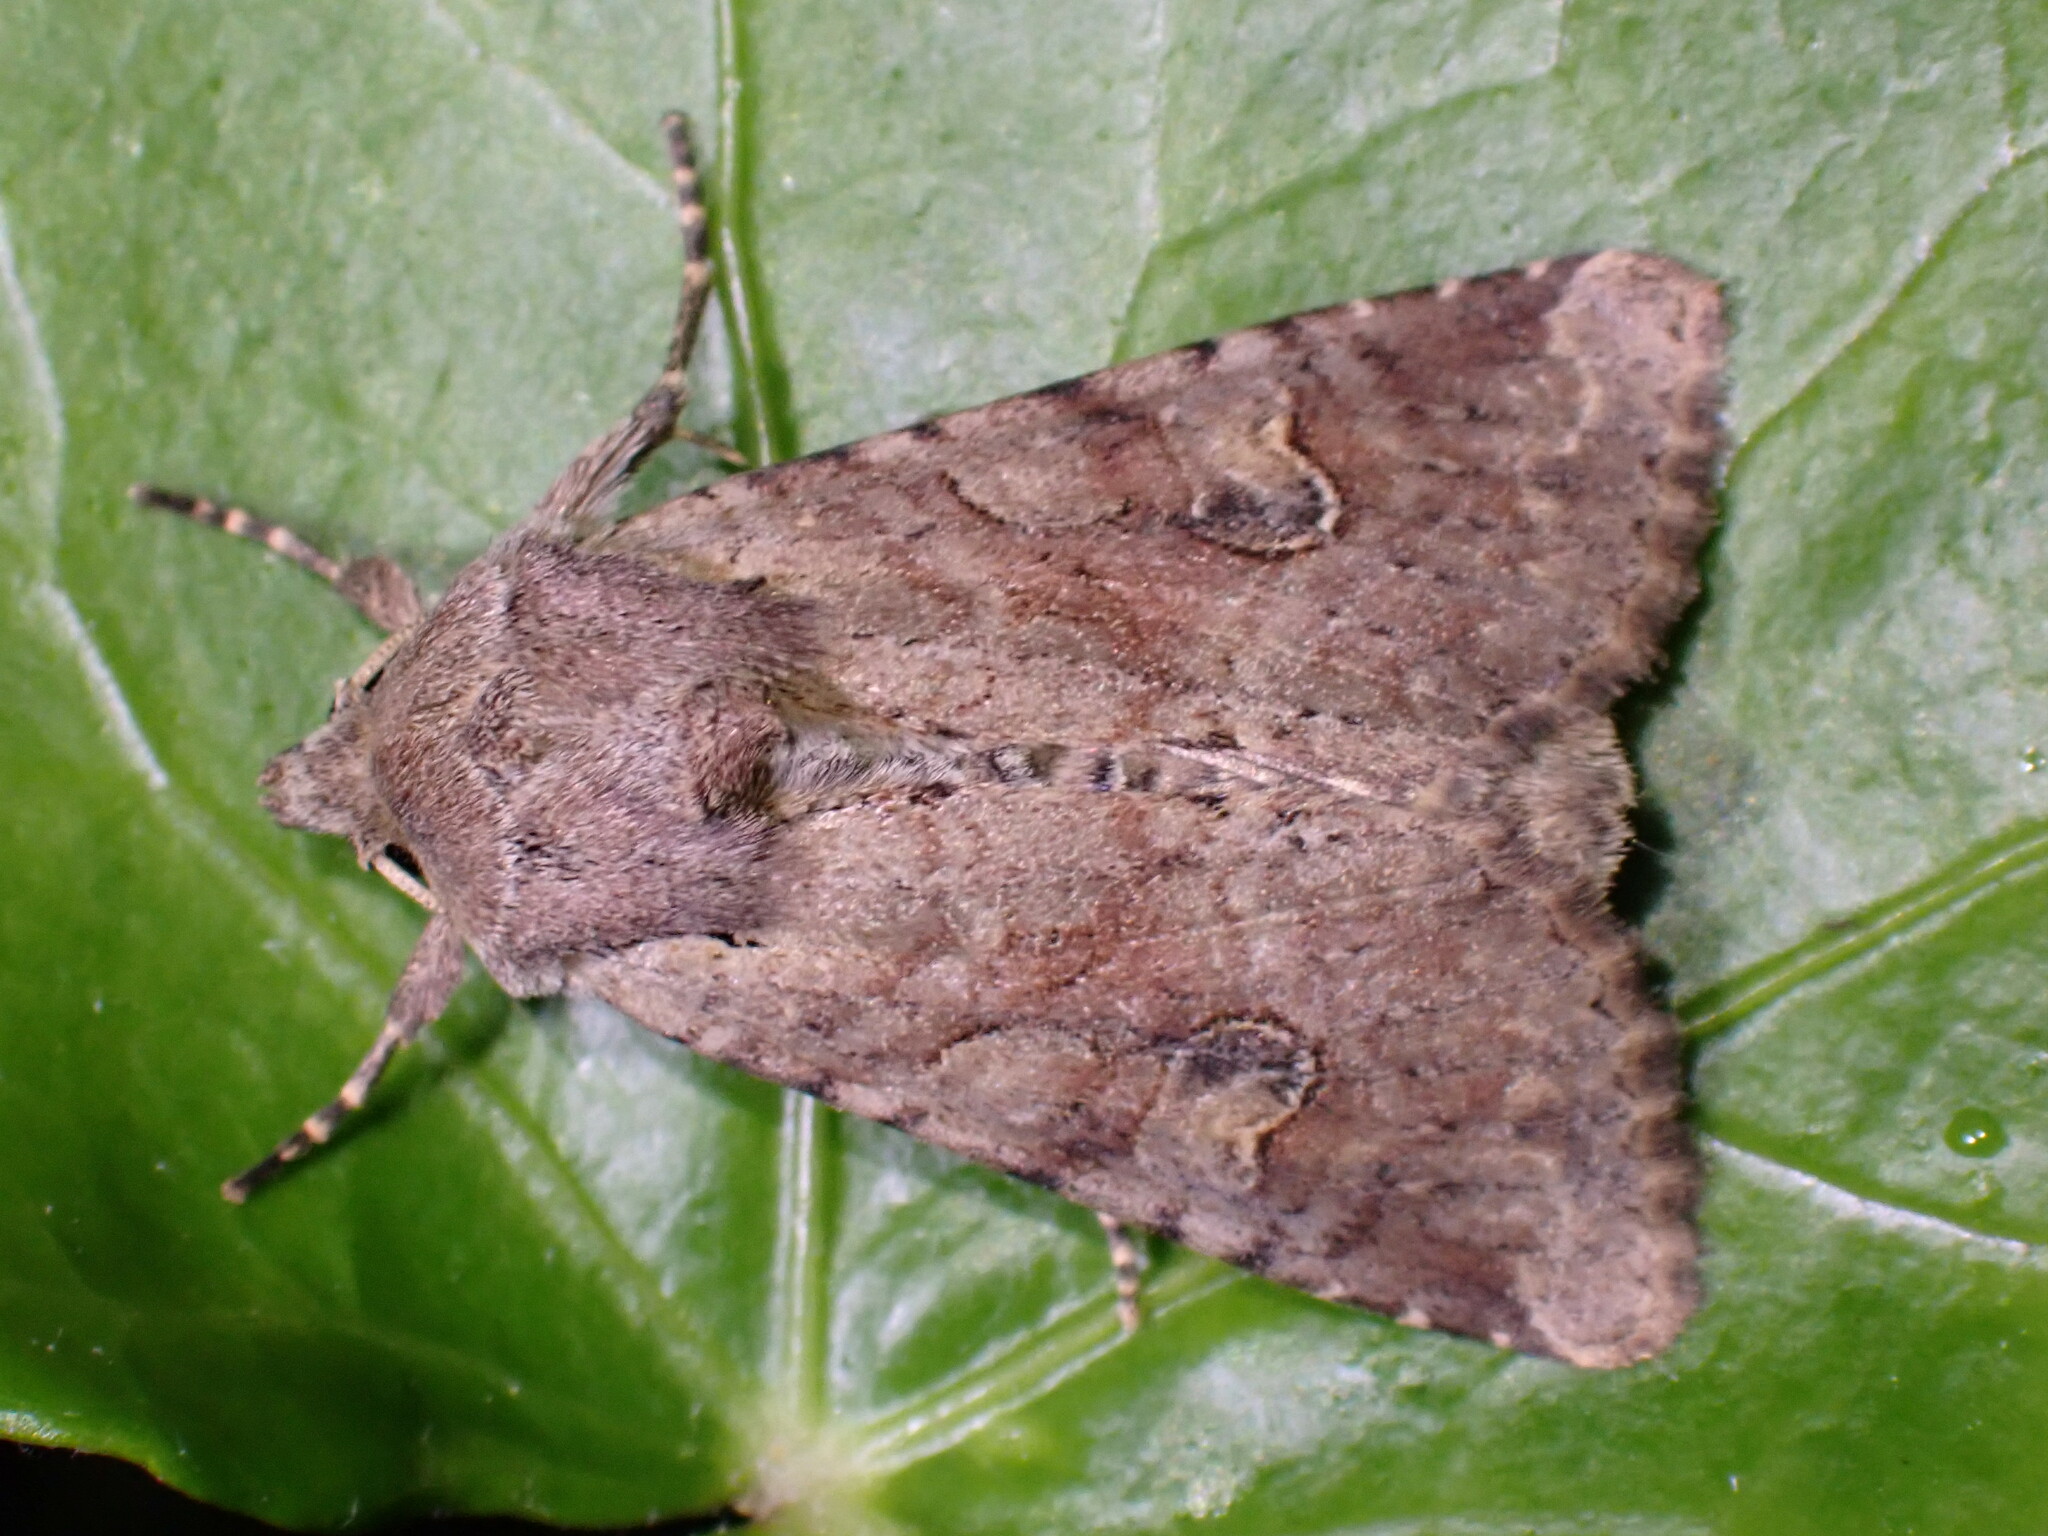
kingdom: Animalia
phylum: Arthropoda
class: Insecta
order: Lepidoptera
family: Noctuidae
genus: Apamea
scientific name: Apamea sordens
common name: Rustic shoulder-knot
